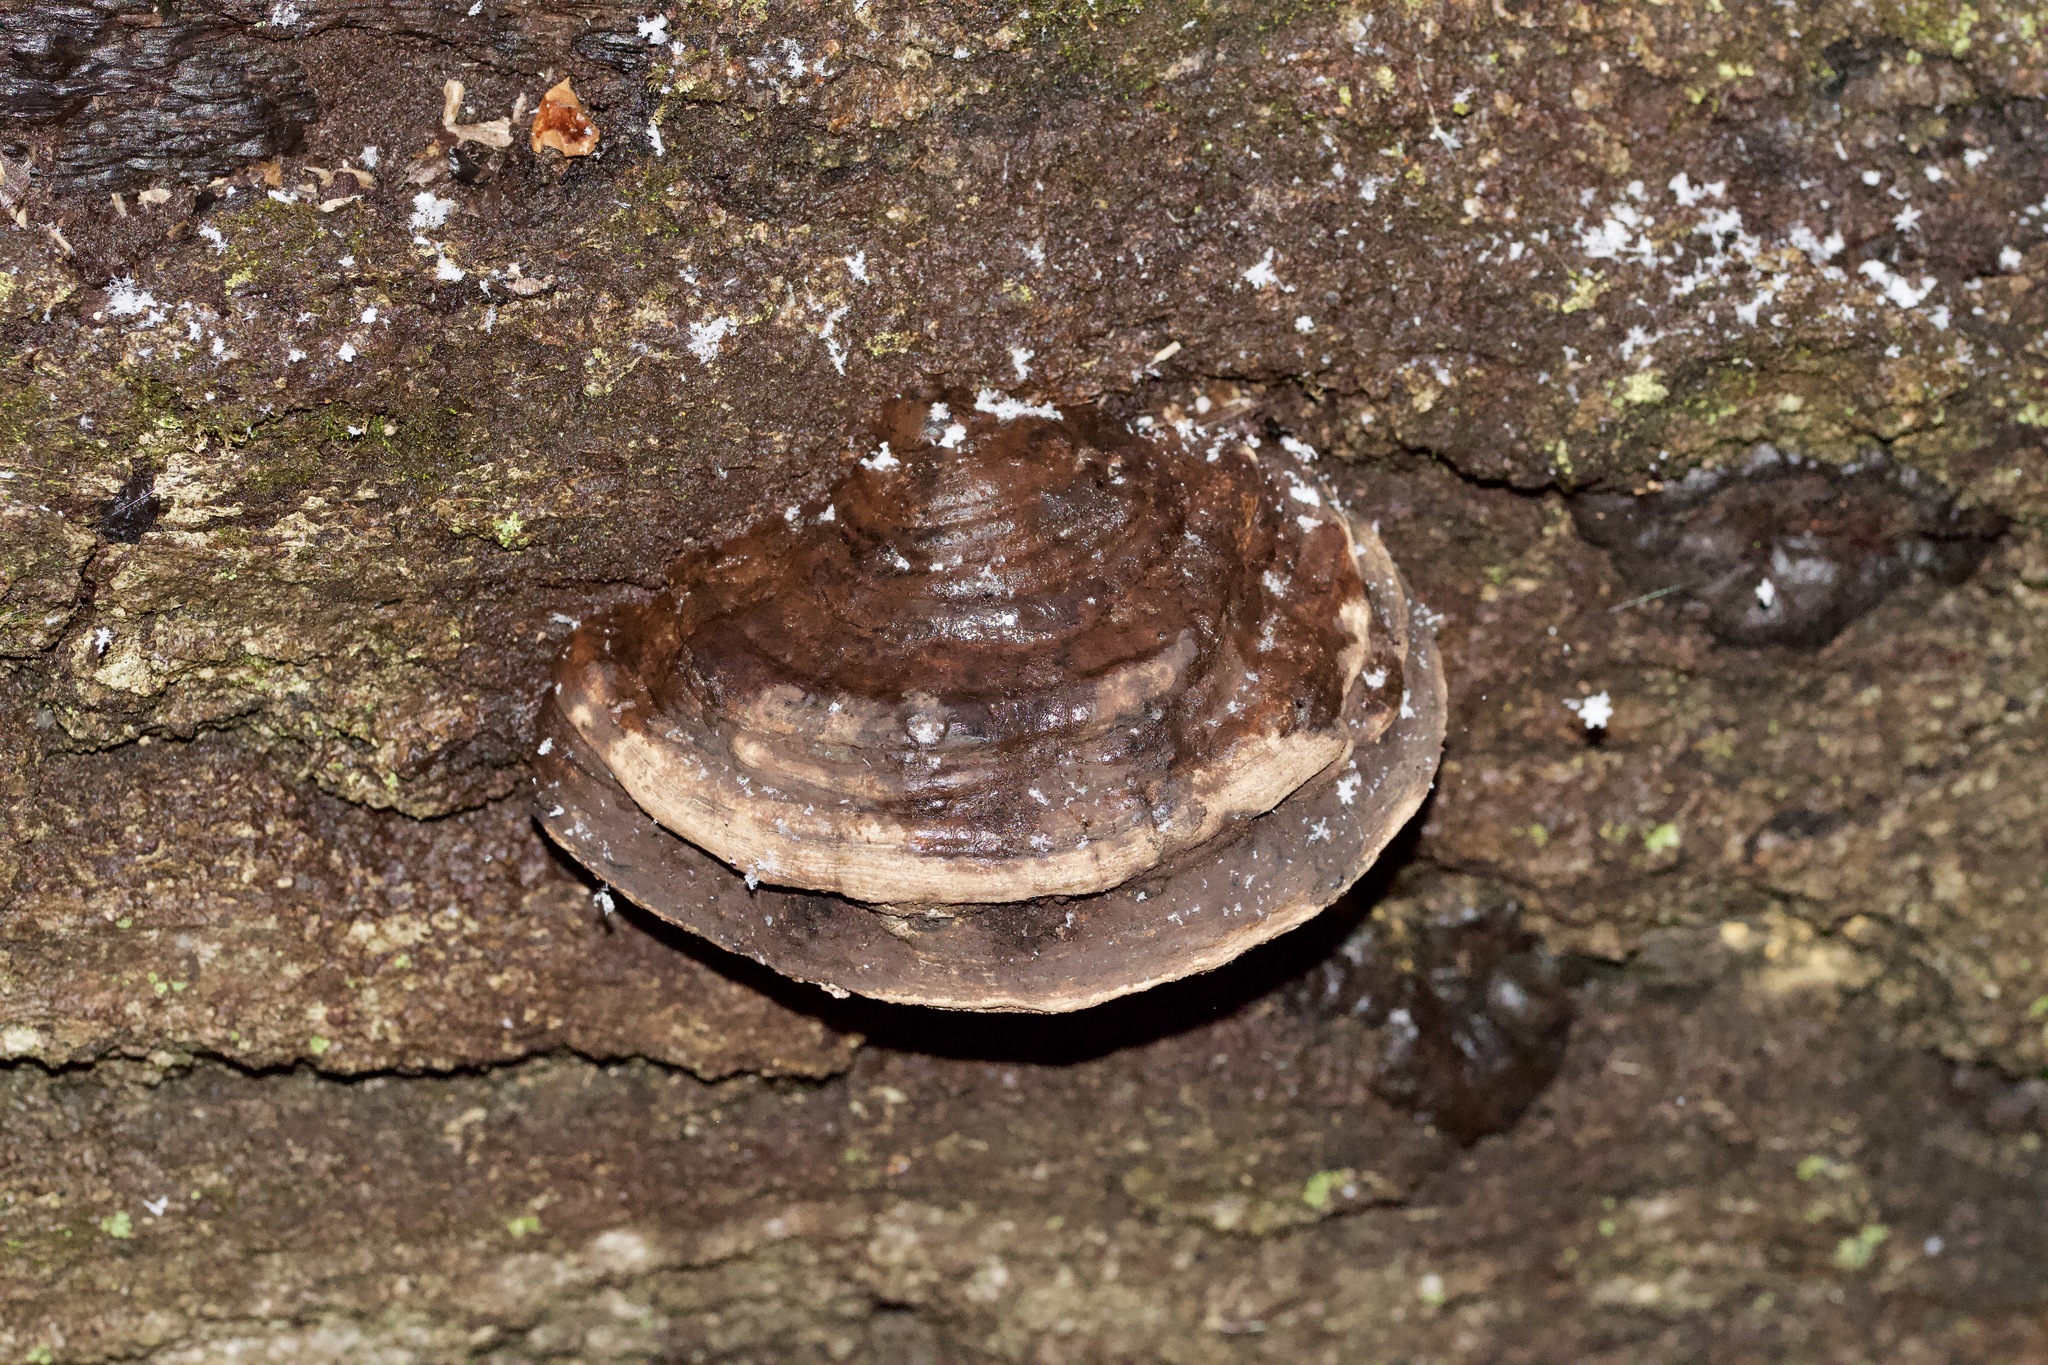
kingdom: Fungi
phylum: Basidiomycota
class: Agaricomycetes
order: Polyporales
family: Polyporaceae
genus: Fomes
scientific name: Fomes fomentarius
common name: Hoof fungus
